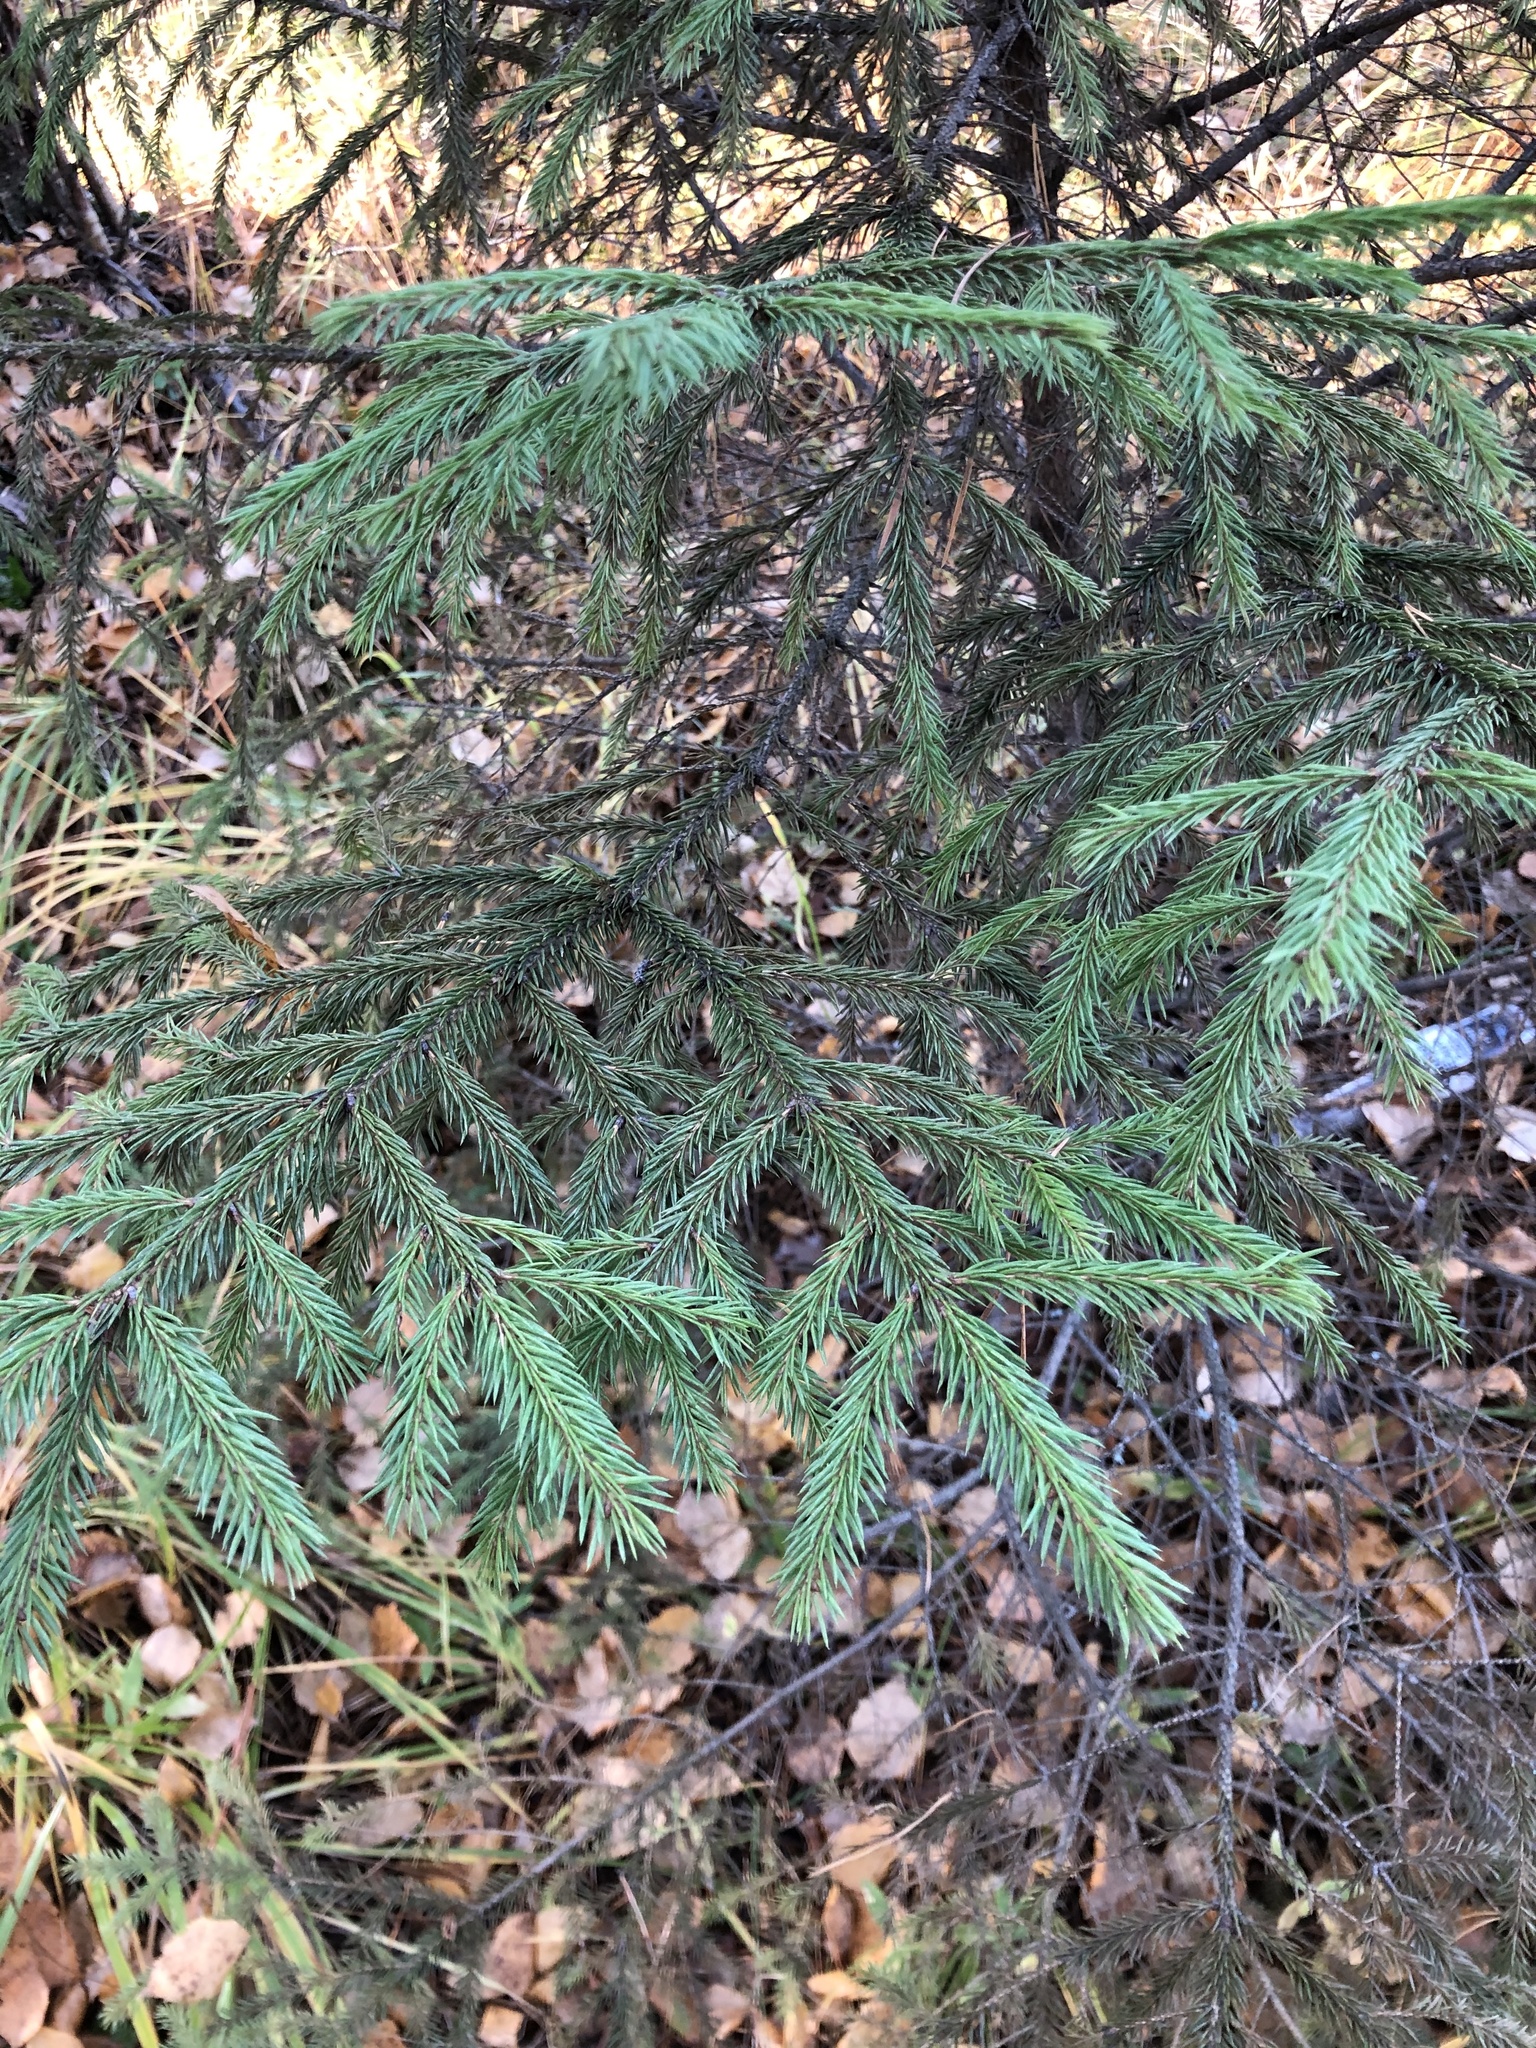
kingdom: Plantae
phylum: Tracheophyta
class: Pinopsida
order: Pinales
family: Pinaceae
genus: Picea
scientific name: Picea obovata
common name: Siberian spruce
